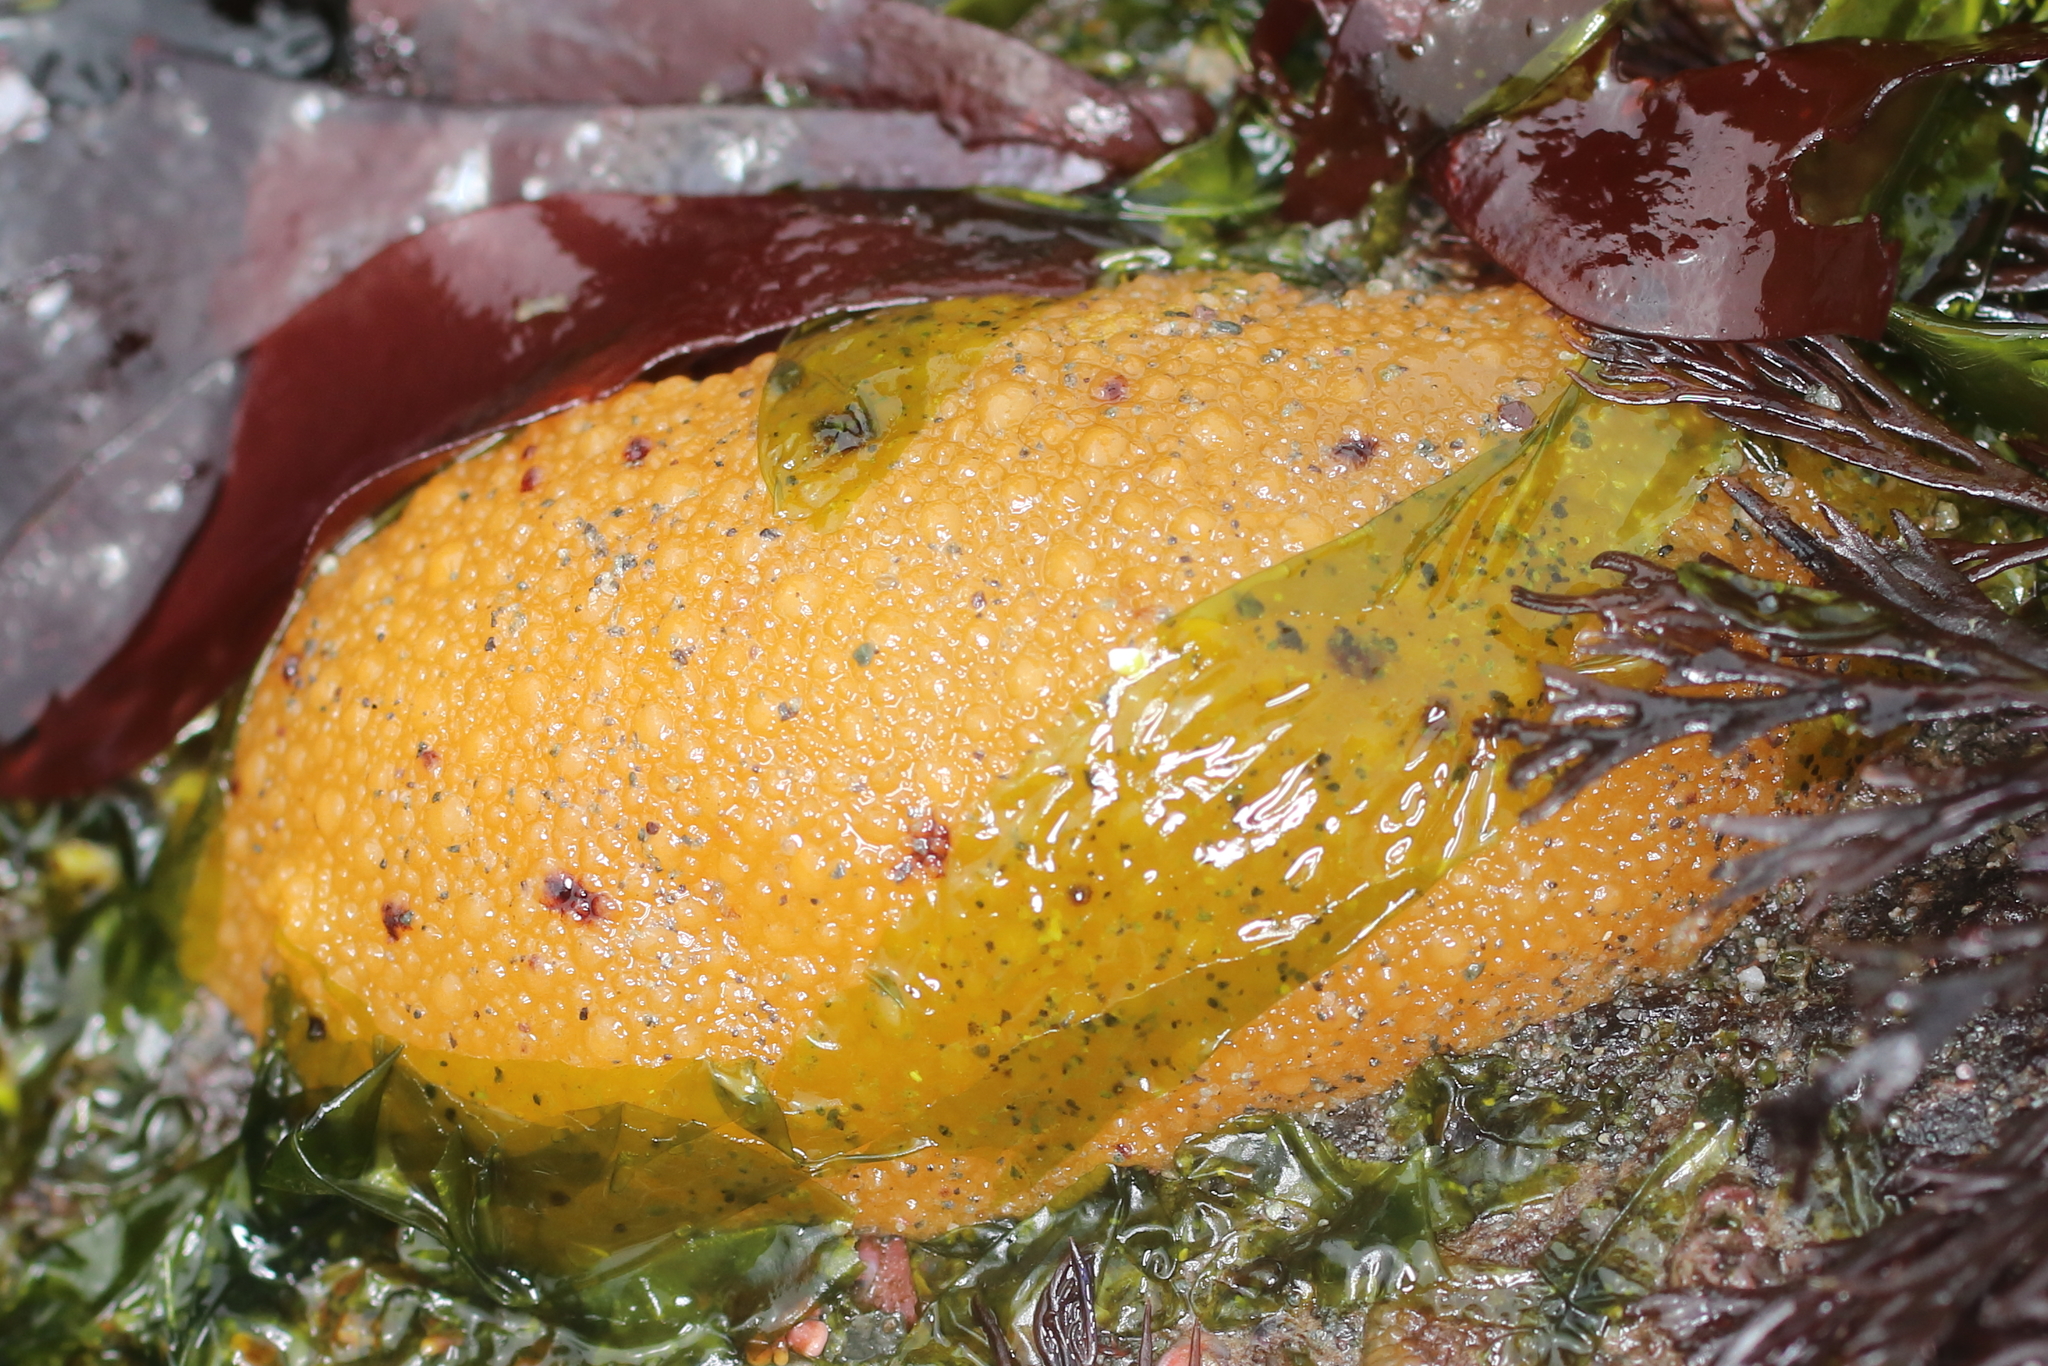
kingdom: Animalia
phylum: Mollusca
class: Gastropoda
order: Nudibranchia
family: Dorididae
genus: Doris
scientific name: Doris montereyensis
